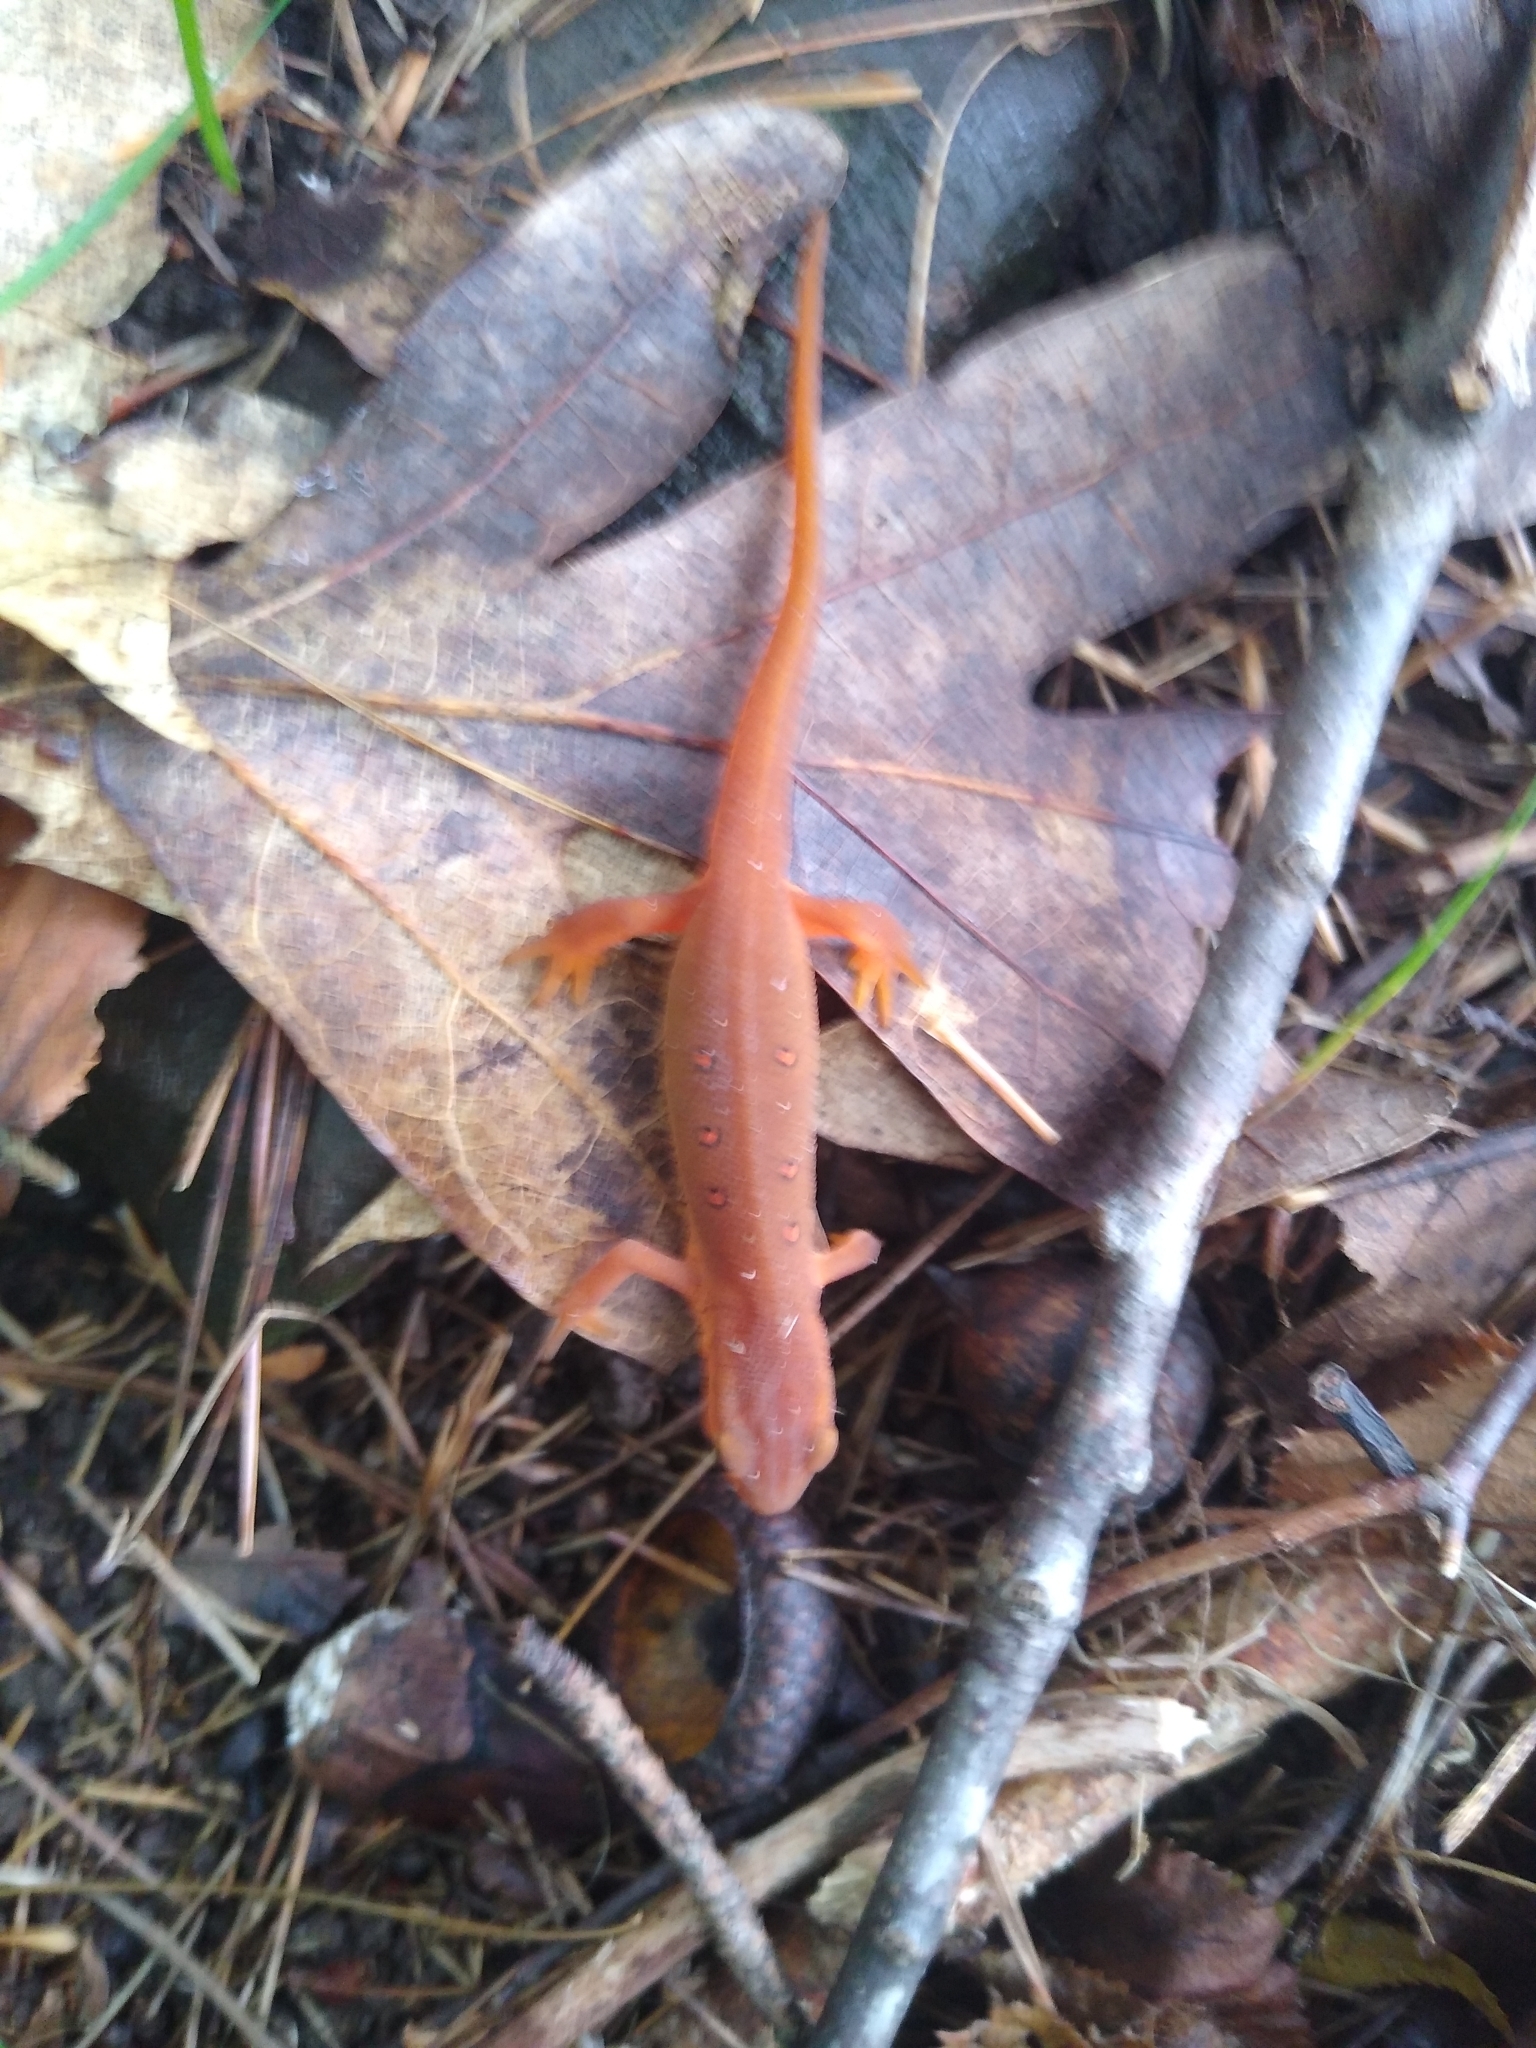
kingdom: Animalia
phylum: Chordata
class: Amphibia
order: Caudata
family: Salamandridae
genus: Notophthalmus
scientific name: Notophthalmus viridescens
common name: Eastern newt
